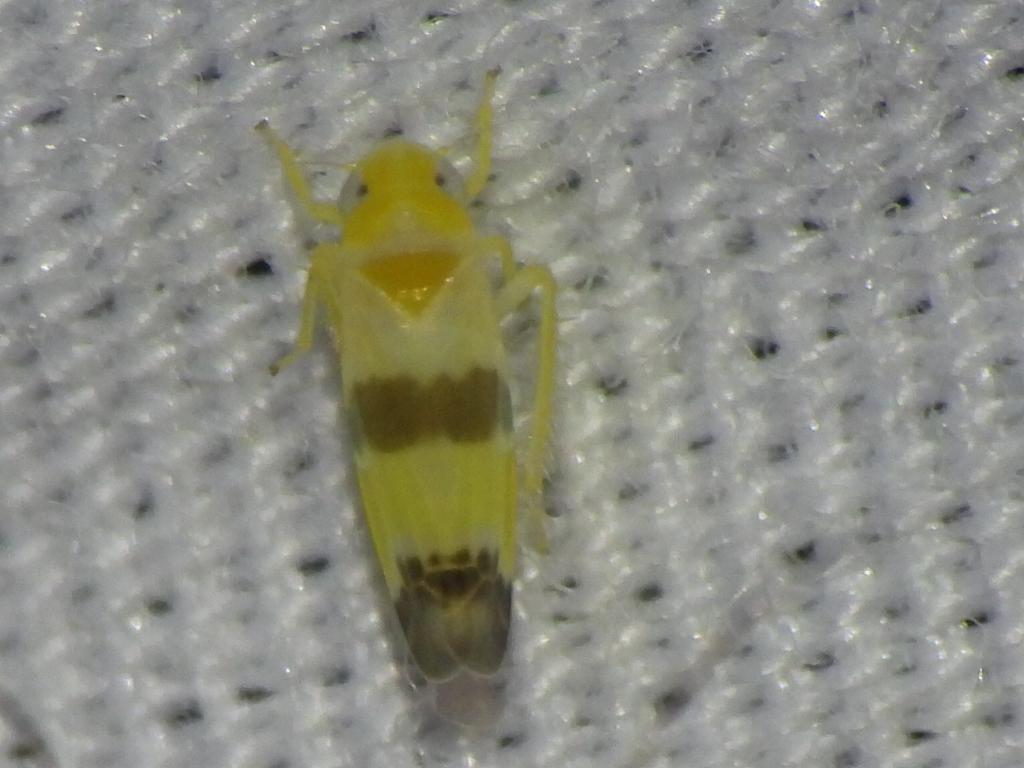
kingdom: Animalia
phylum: Arthropoda
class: Insecta
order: Hemiptera
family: Cicadellidae
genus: Empoa
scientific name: Empoa venusta
